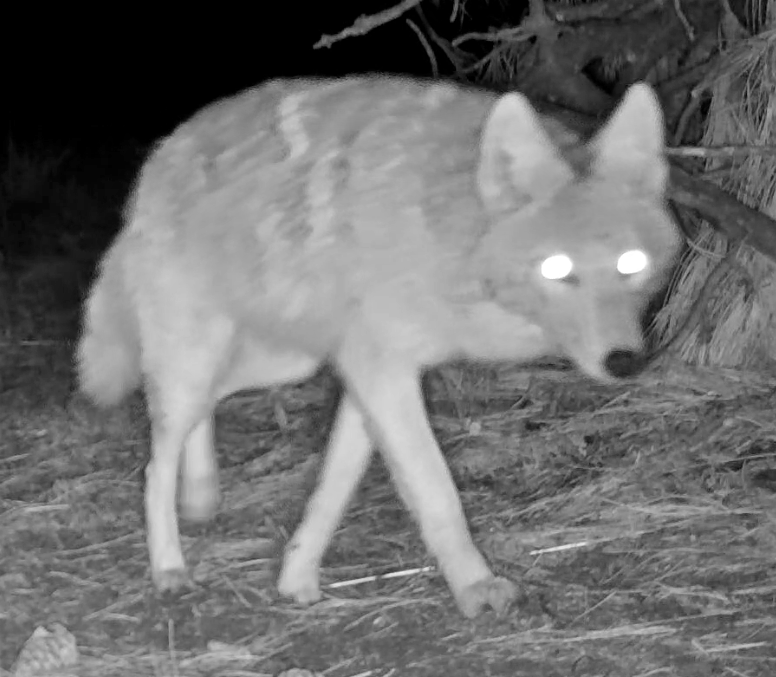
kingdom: Animalia
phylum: Chordata
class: Mammalia
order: Carnivora
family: Canidae
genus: Canis
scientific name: Canis latrans
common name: Coyote
